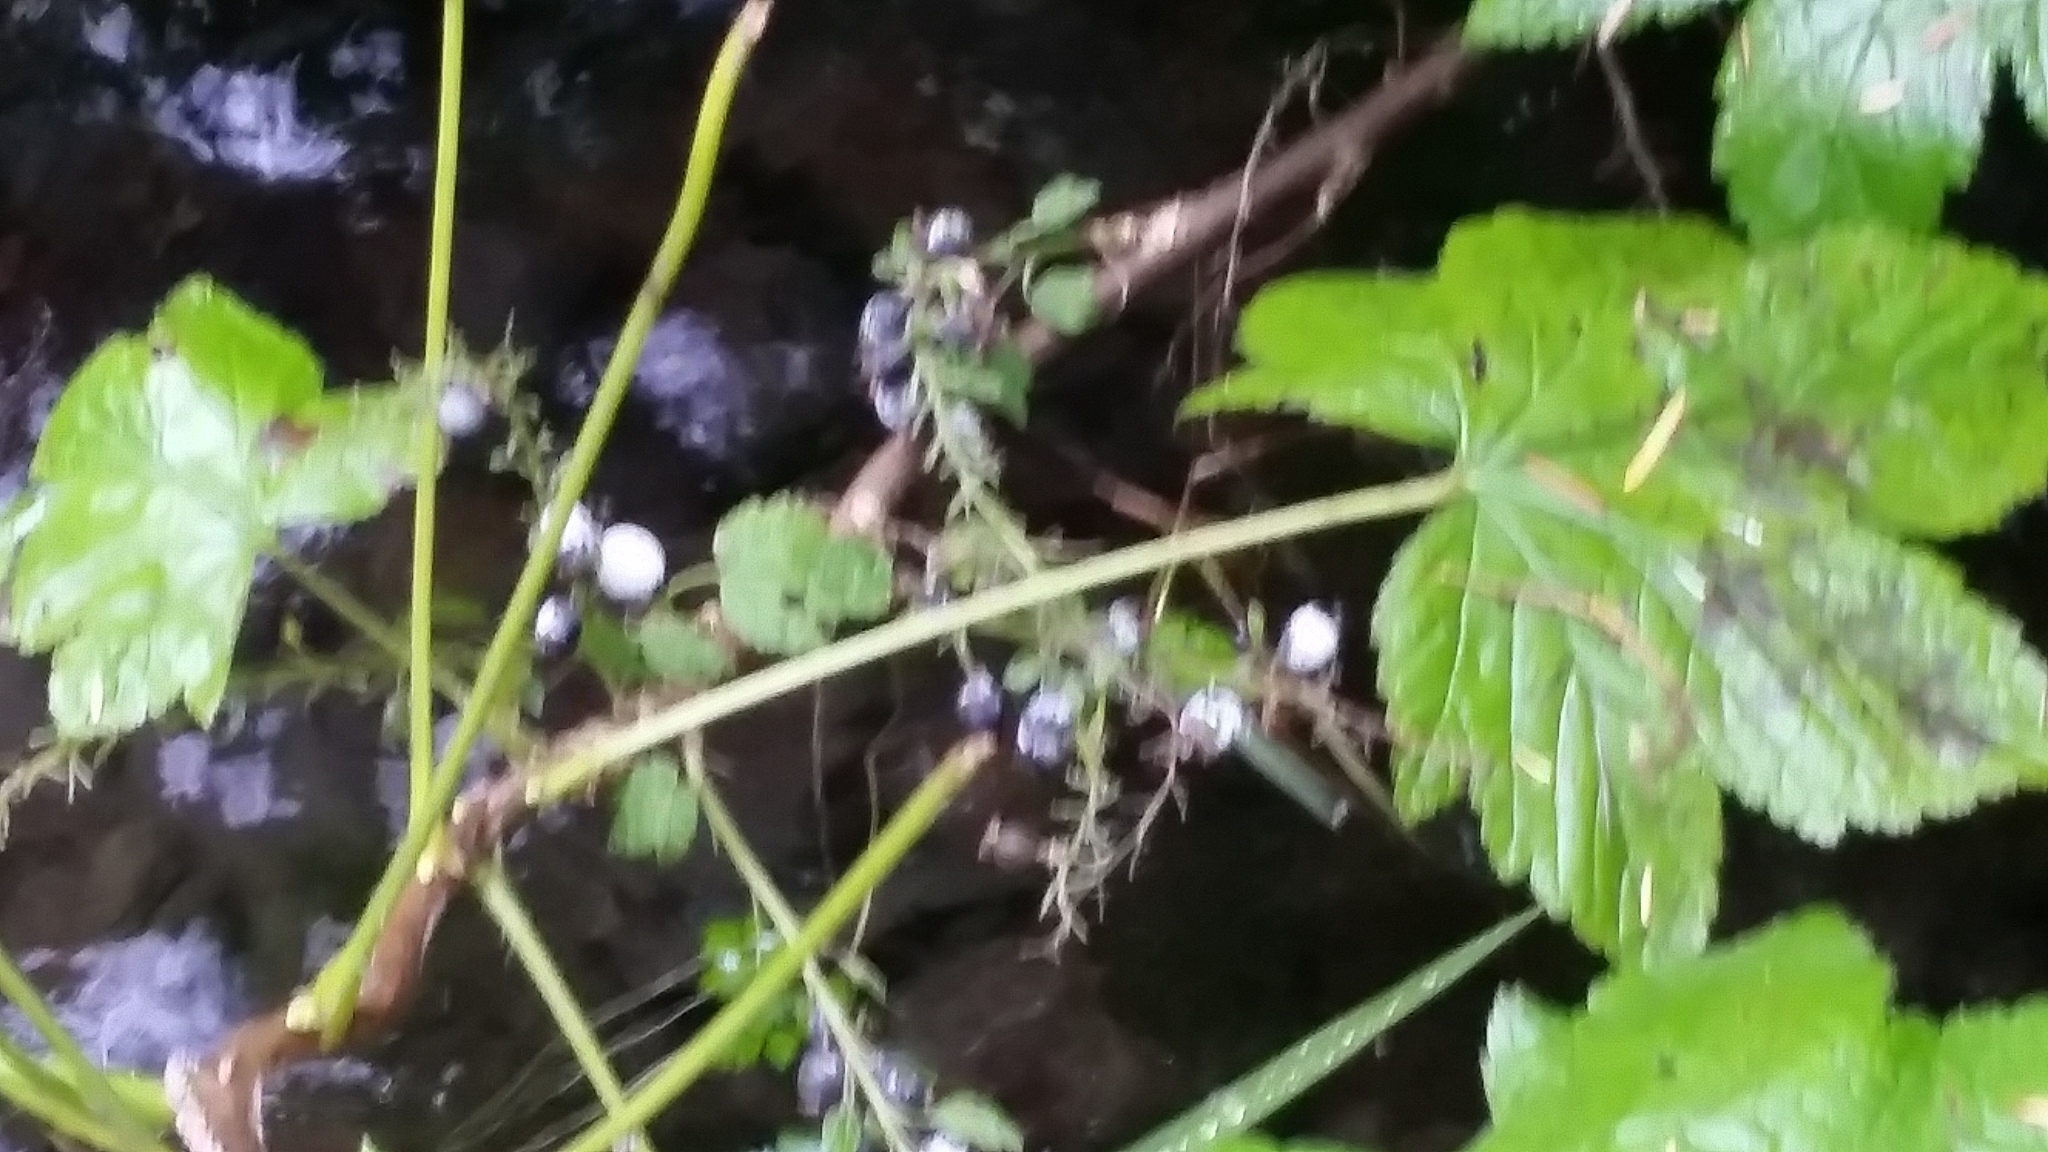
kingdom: Plantae
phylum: Tracheophyta
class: Magnoliopsida
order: Saxifragales
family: Grossulariaceae
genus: Ribes
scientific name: Ribes bracteosum
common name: California black currant
